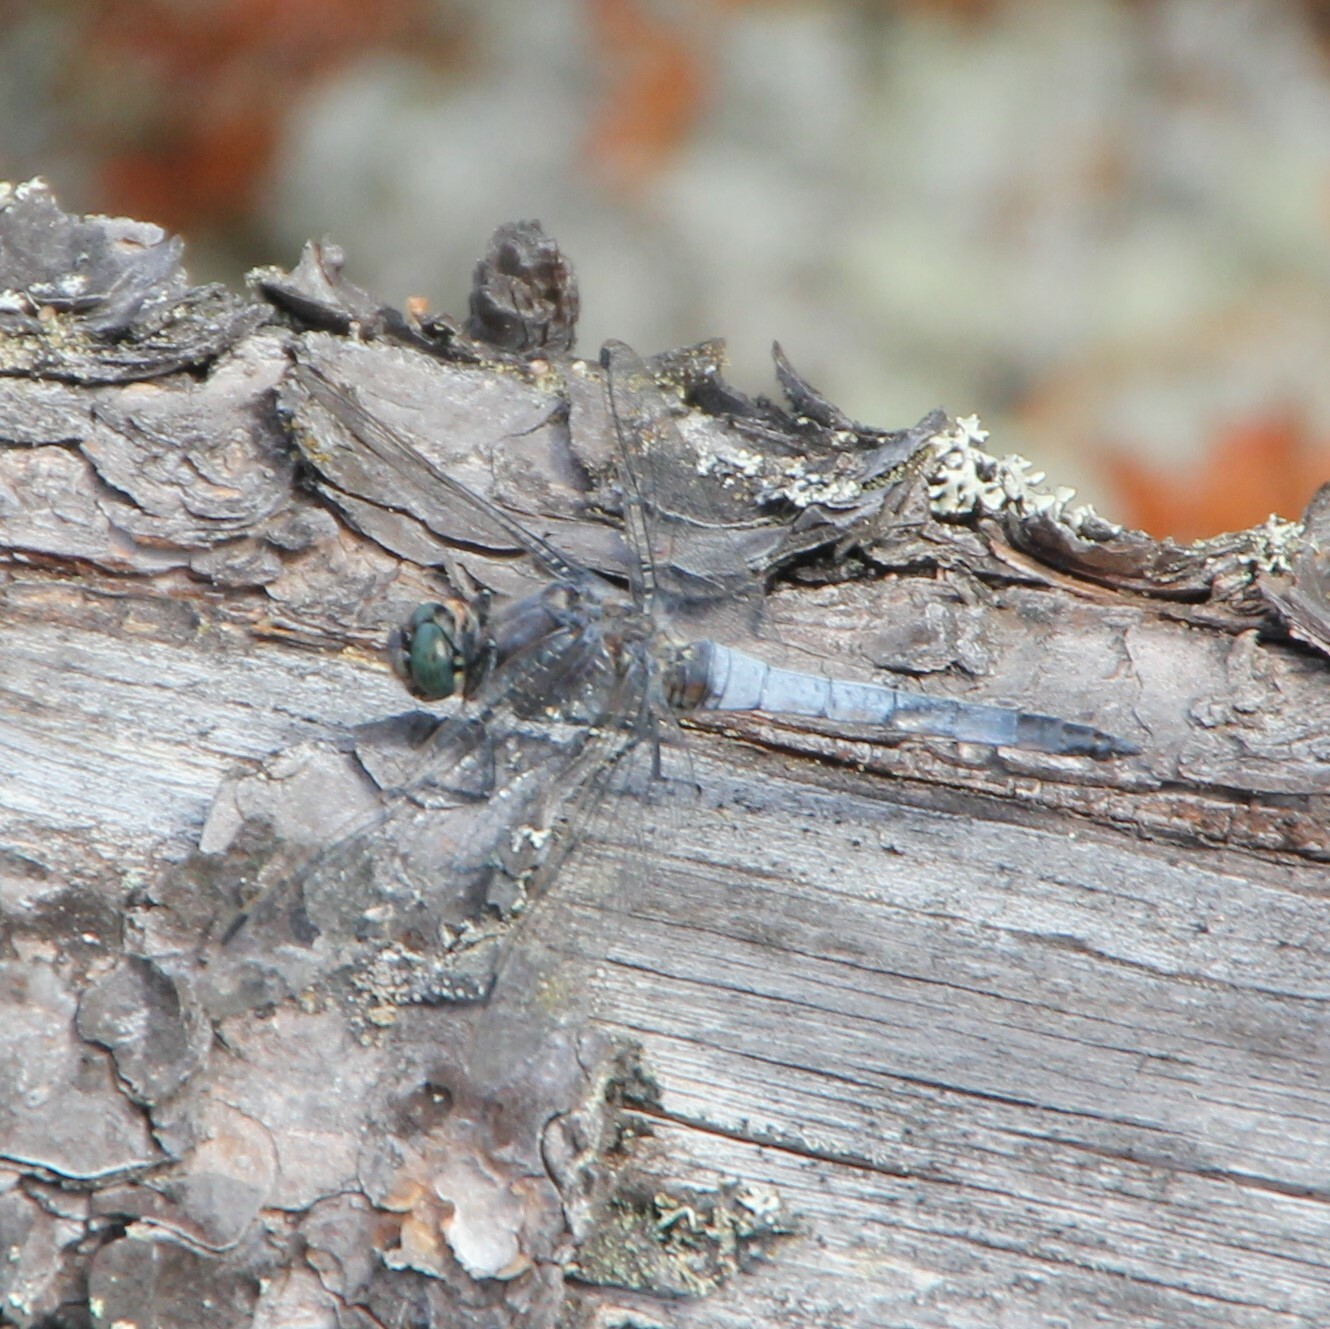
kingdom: Animalia
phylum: Arthropoda
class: Insecta
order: Odonata
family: Libellulidae
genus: Orthetrum
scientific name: Orthetrum cancellatum
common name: Black-tailed skimmer
